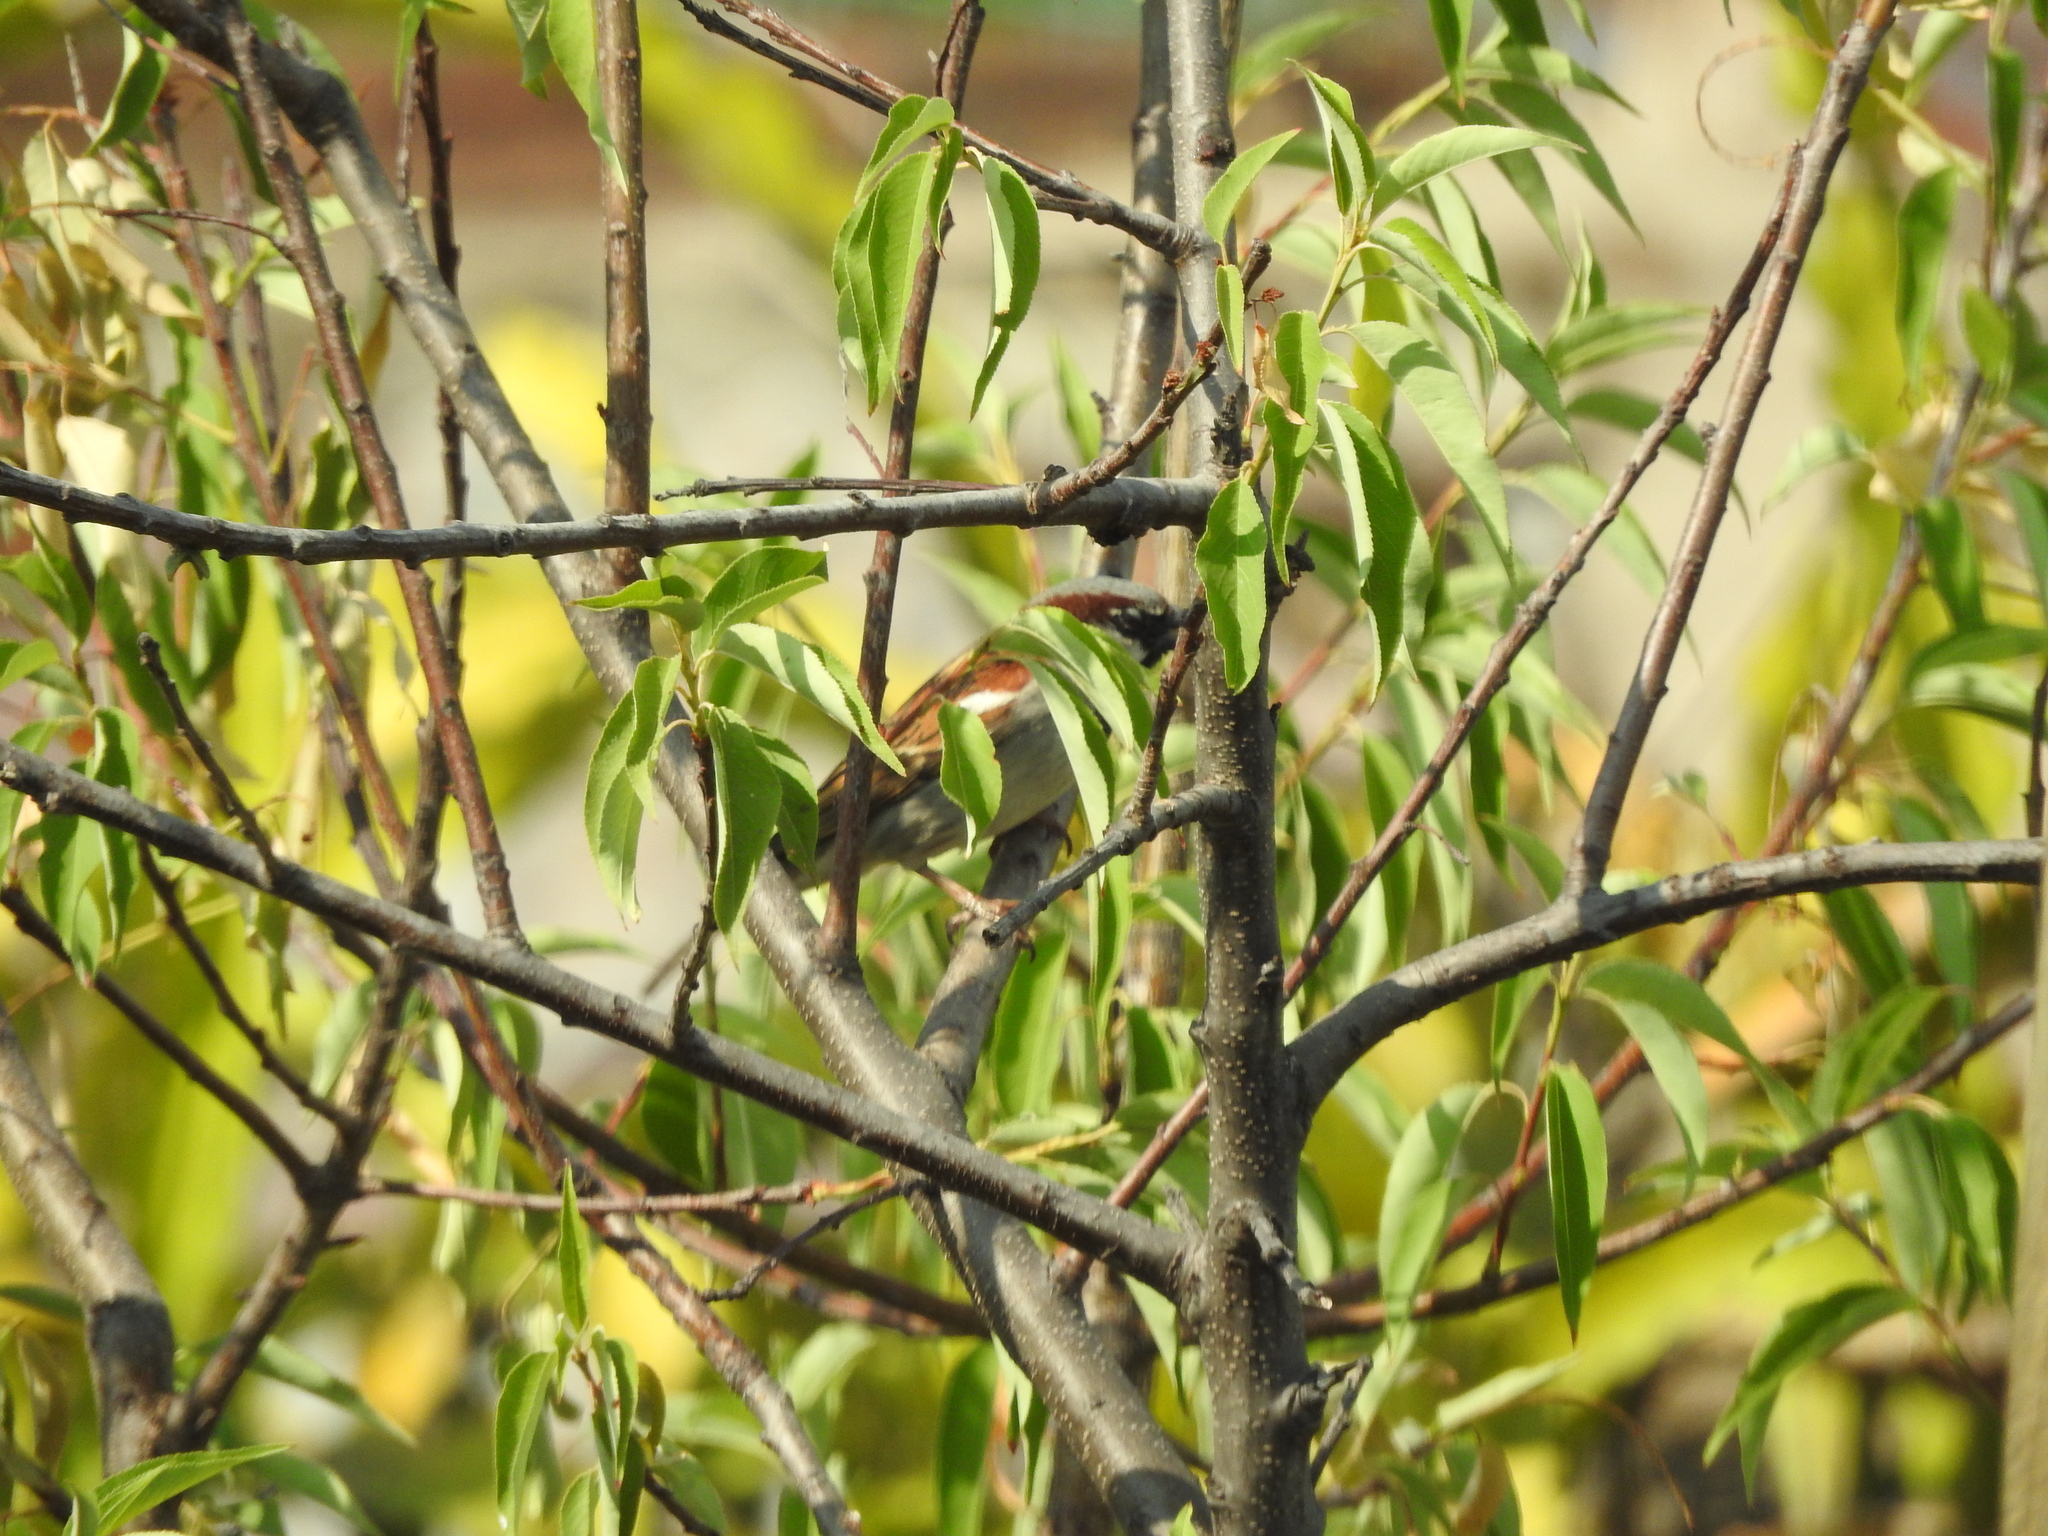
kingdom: Animalia
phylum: Chordata
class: Aves
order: Passeriformes
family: Passeridae
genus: Passer
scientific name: Passer domesticus
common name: House sparrow
